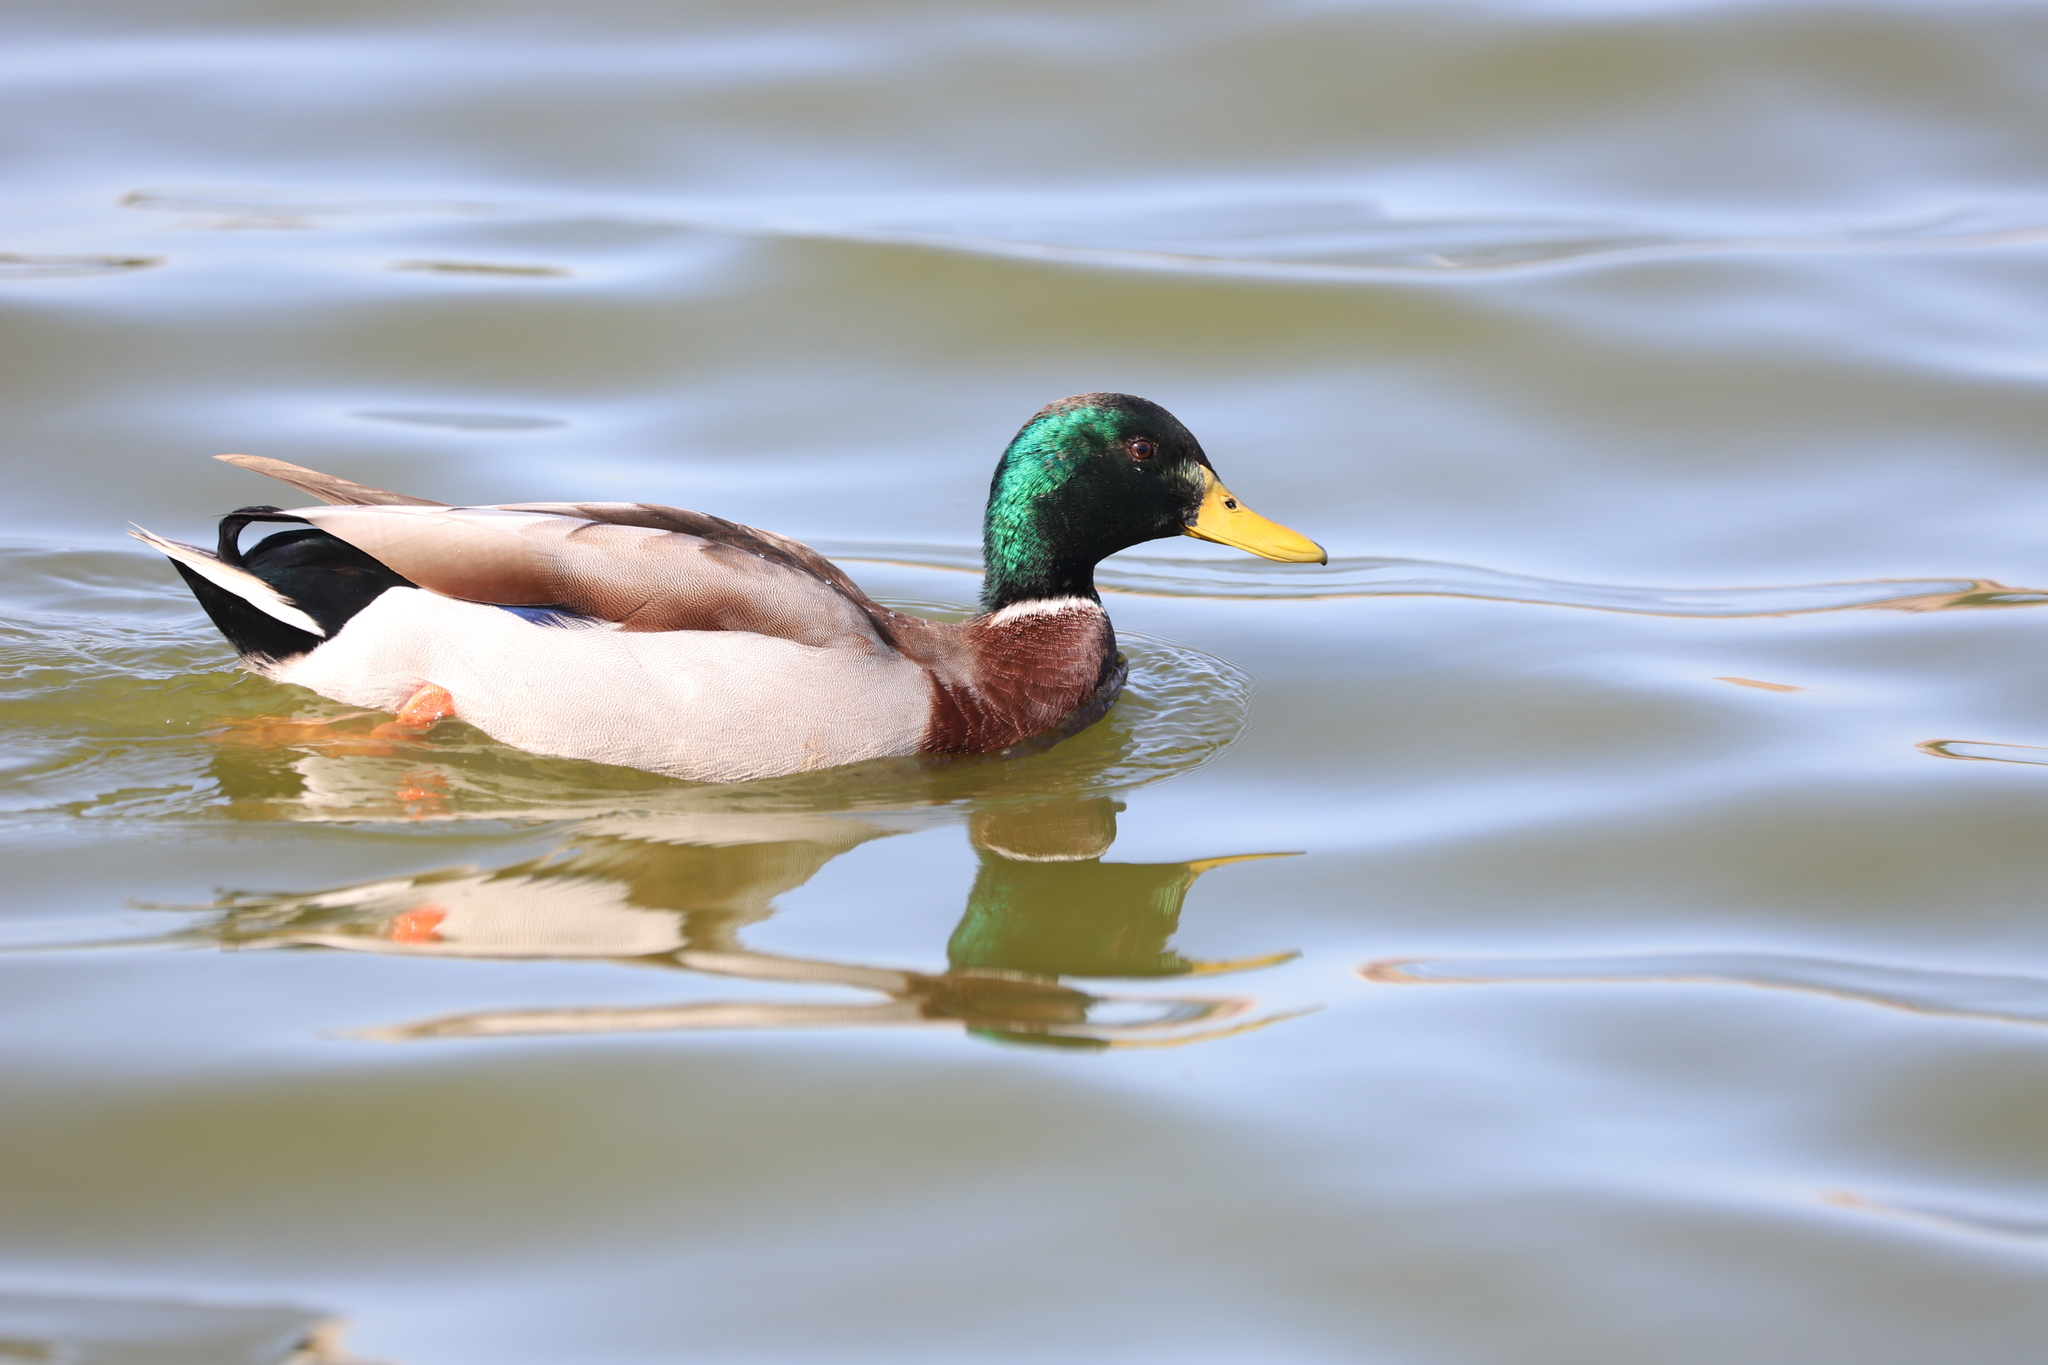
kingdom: Animalia
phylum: Chordata
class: Aves
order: Anseriformes
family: Anatidae
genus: Anas
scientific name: Anas platyrhynchos
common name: Mallard
